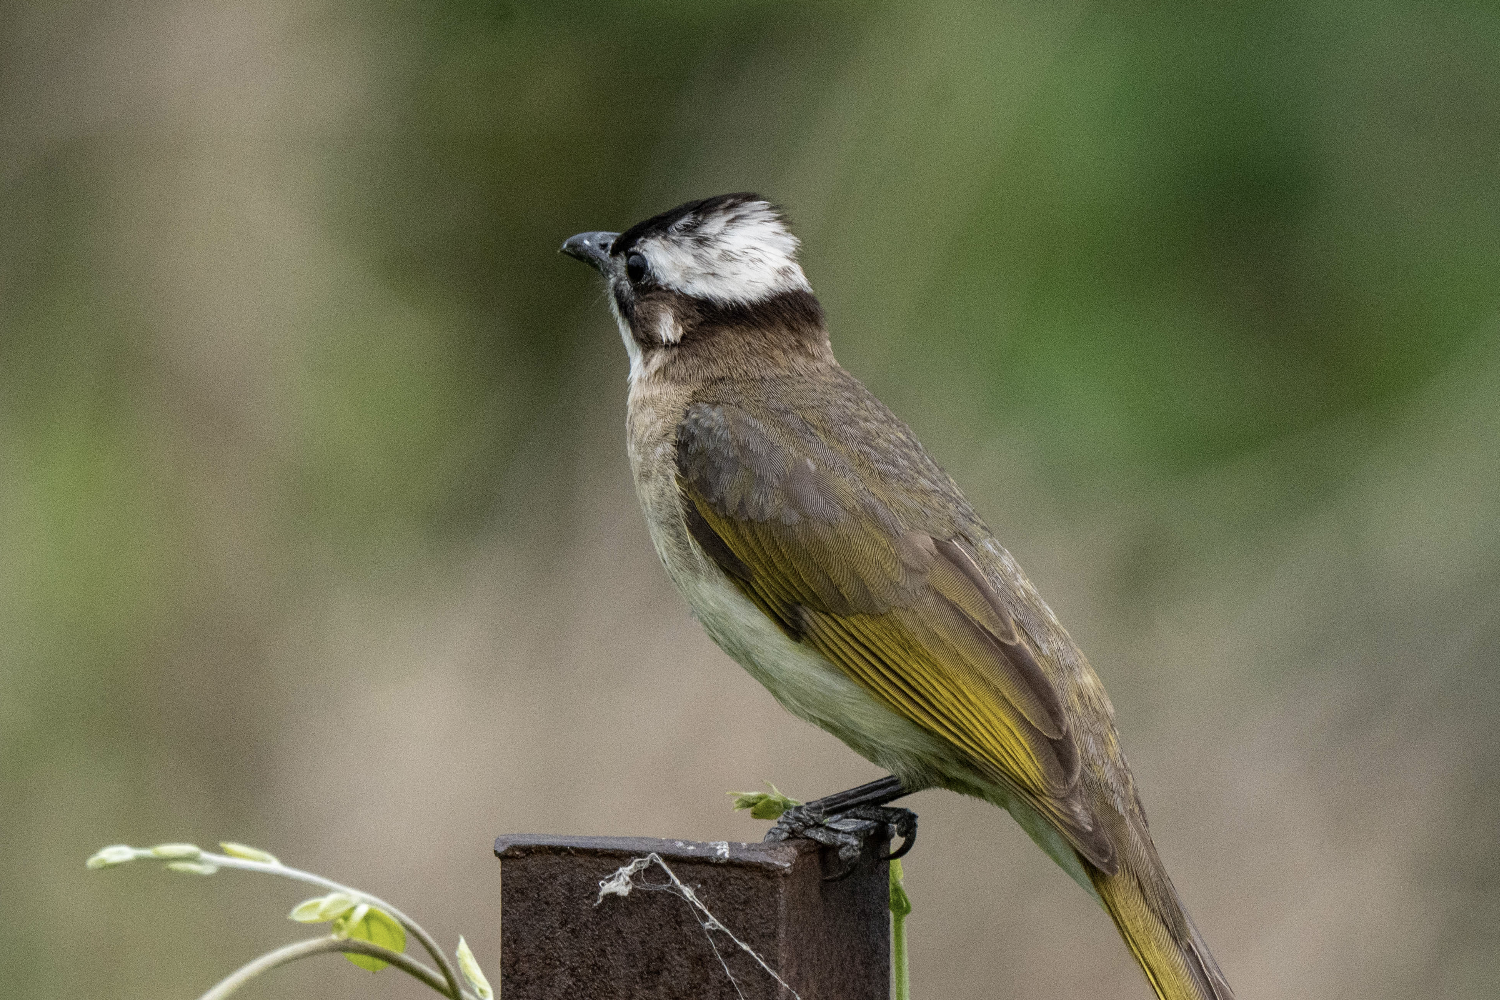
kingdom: Animalia
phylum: Chordata
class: Aves
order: Passeriformes
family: Pycnonotidae
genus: Pycnonotus
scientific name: Pycnonotus sinensis
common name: Light-vented bulbul
